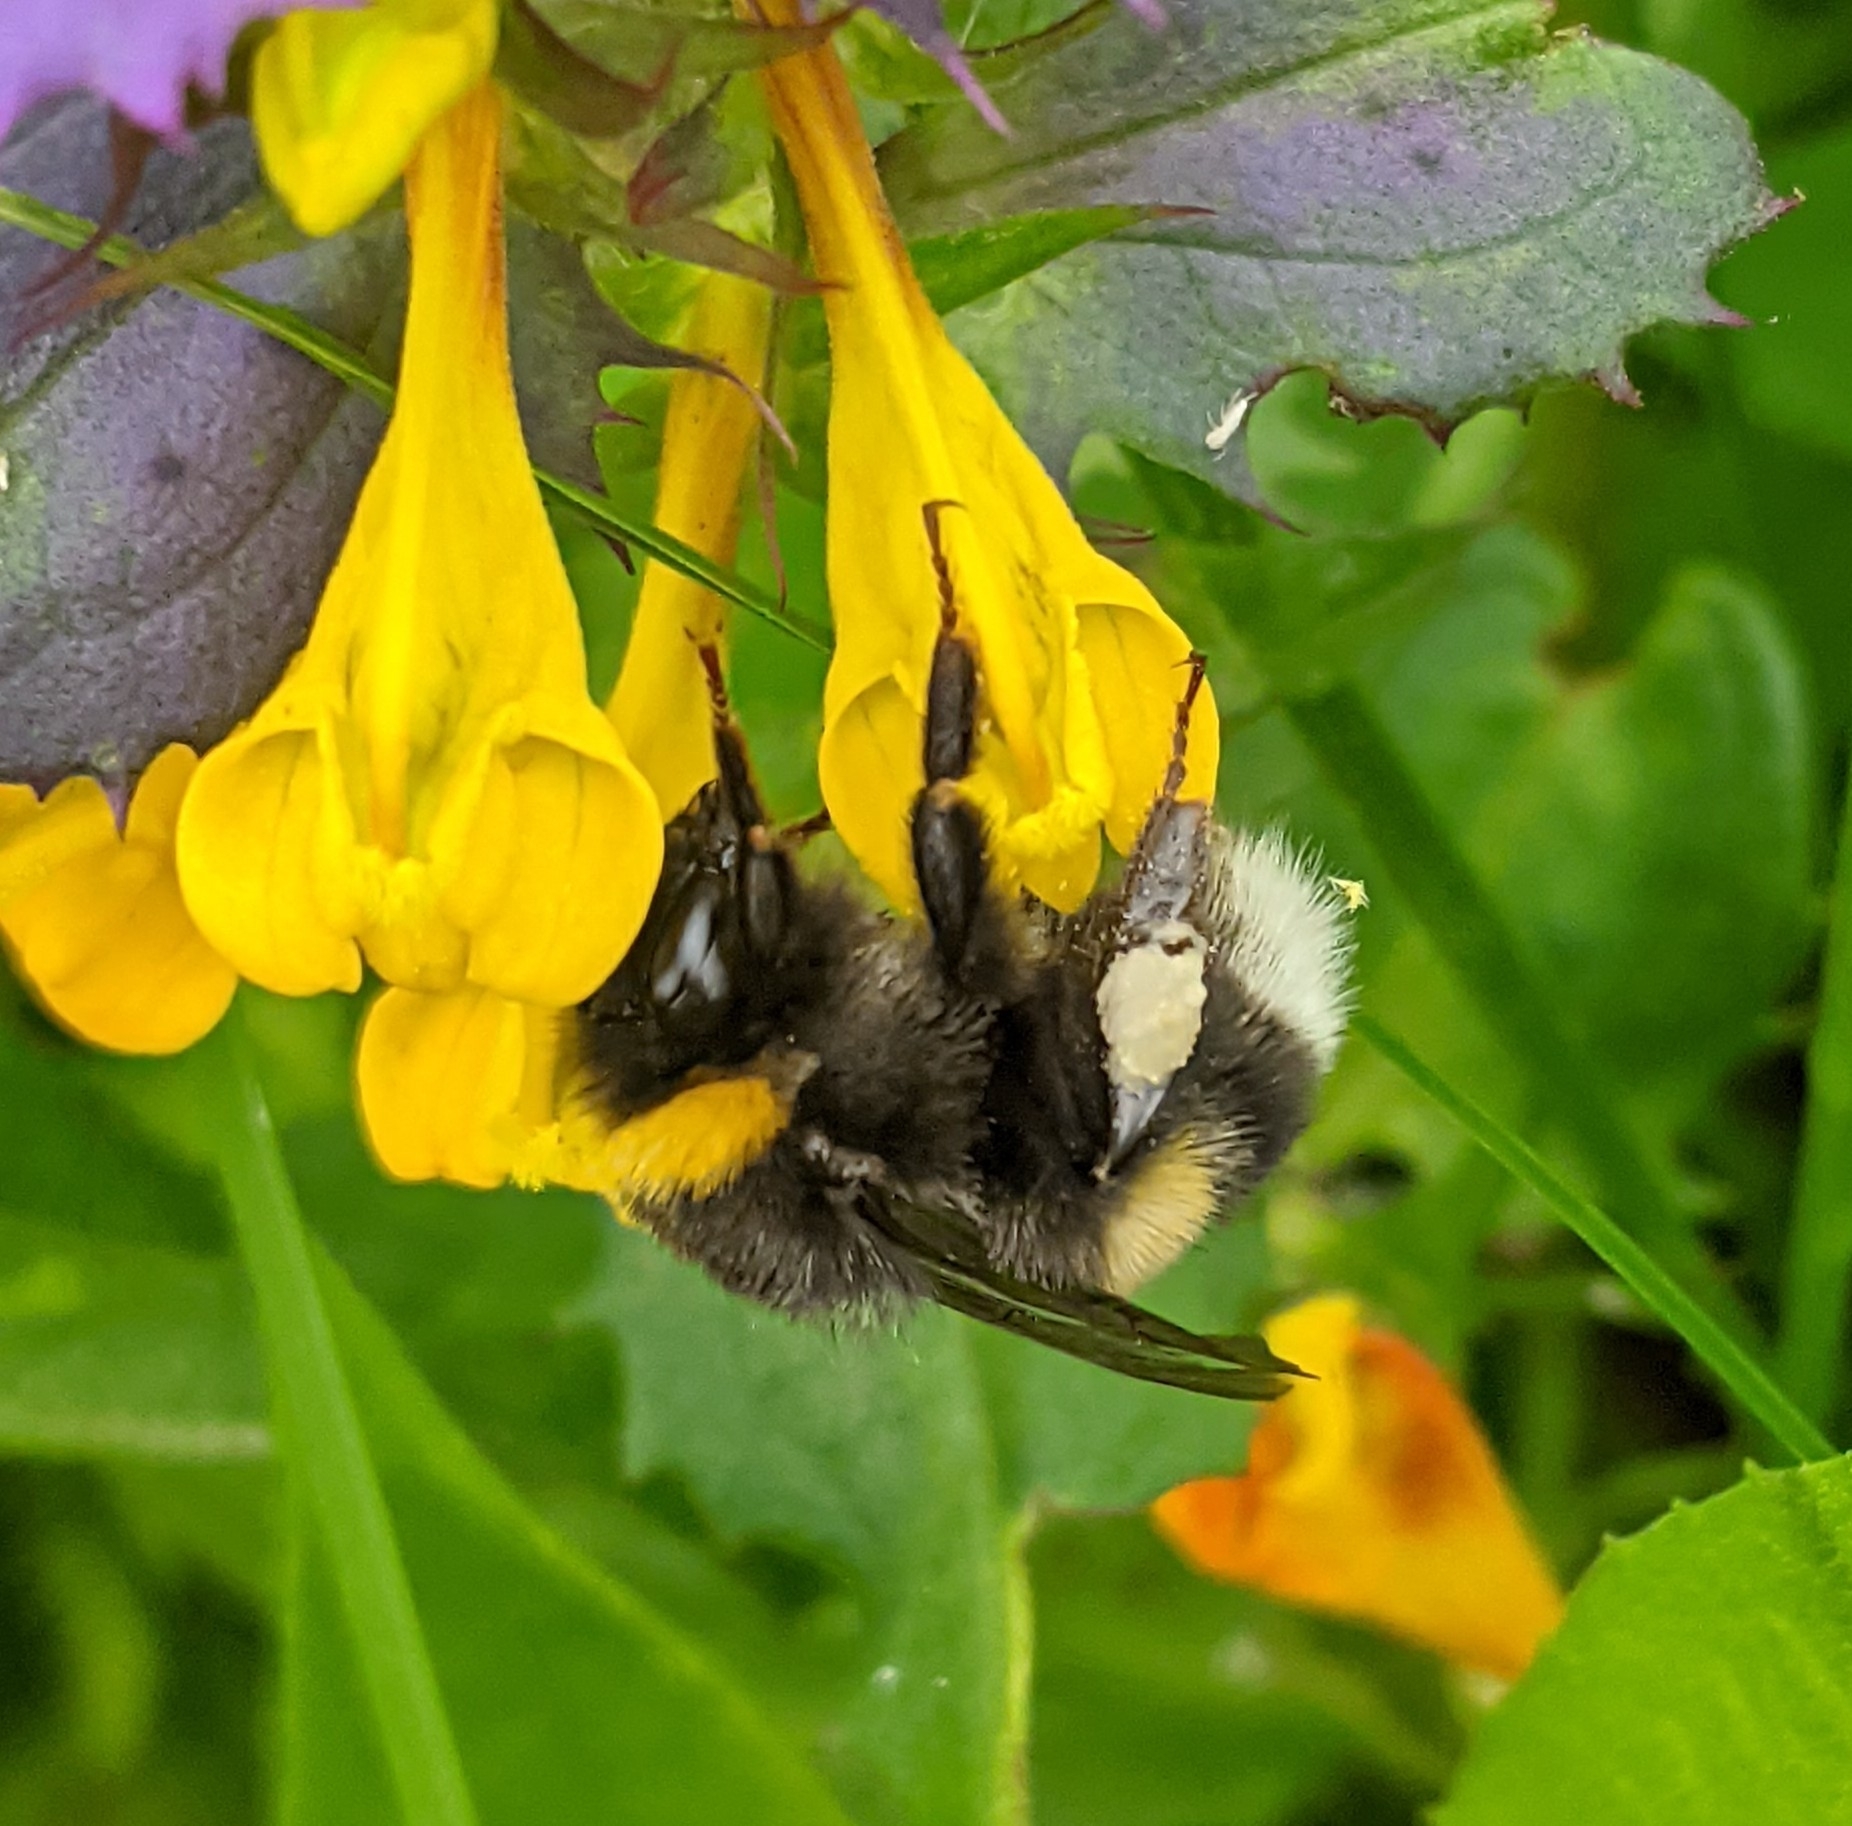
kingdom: Animalia
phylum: Arthropoda
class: Insecta
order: Hymenoptera
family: Apidae
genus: Bombus
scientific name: Bombus
